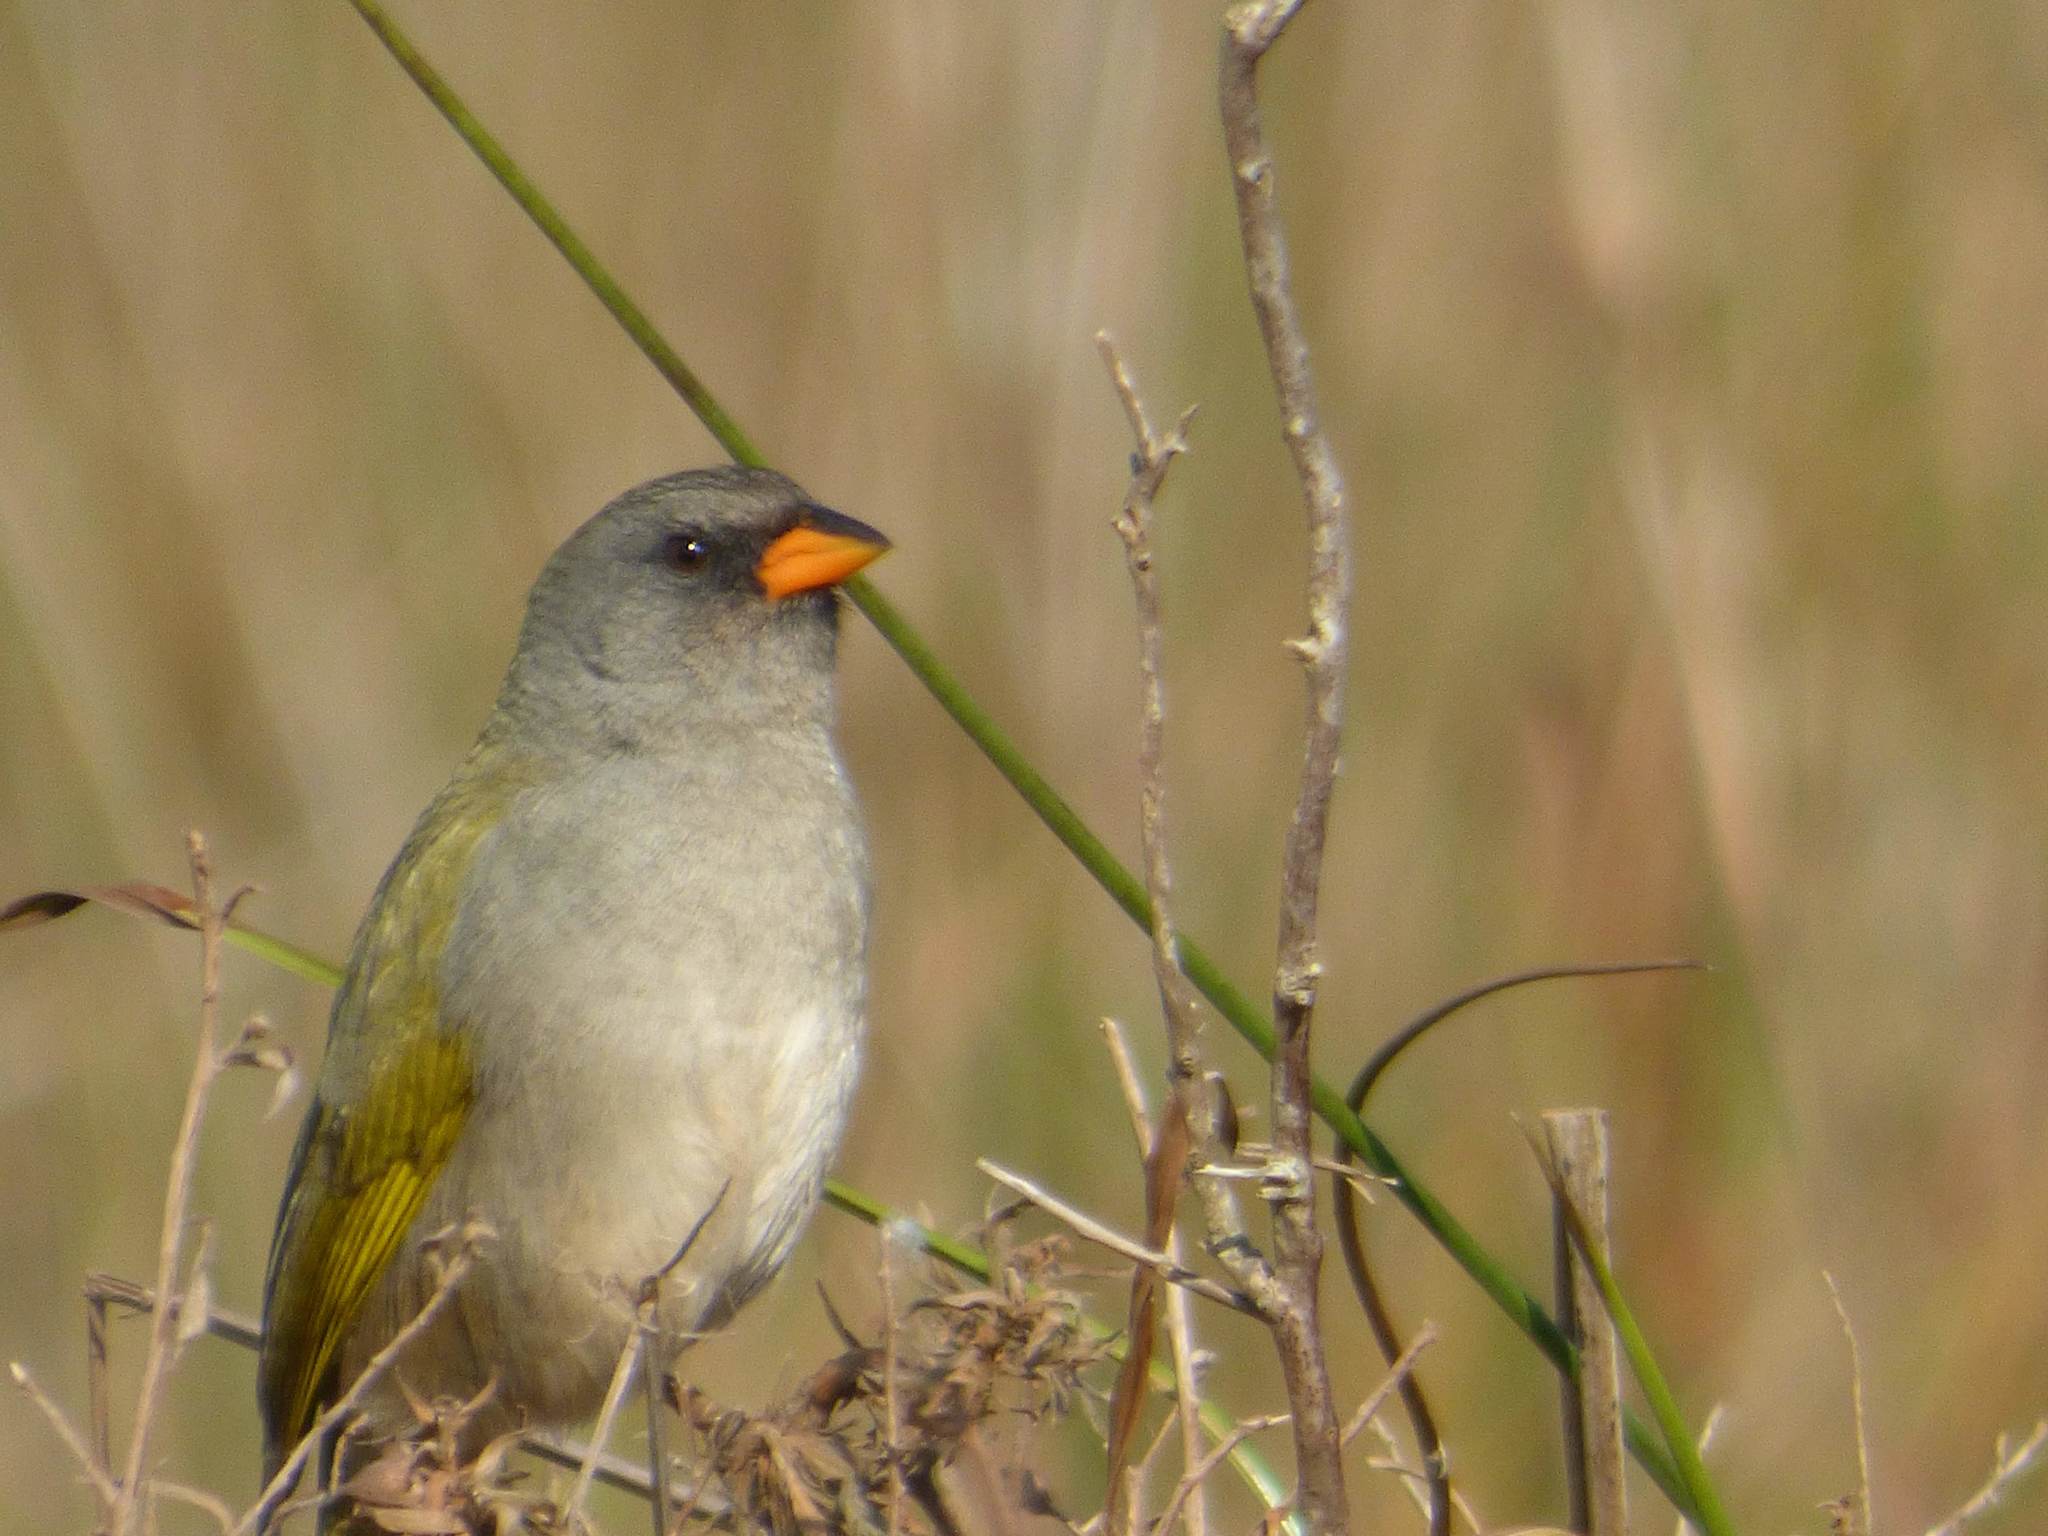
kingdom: Animalia
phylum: Chordata
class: Aves
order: Passeriformes
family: Thraupidae
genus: Embernagra
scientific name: Embernagra platensis
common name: Pampa finch
